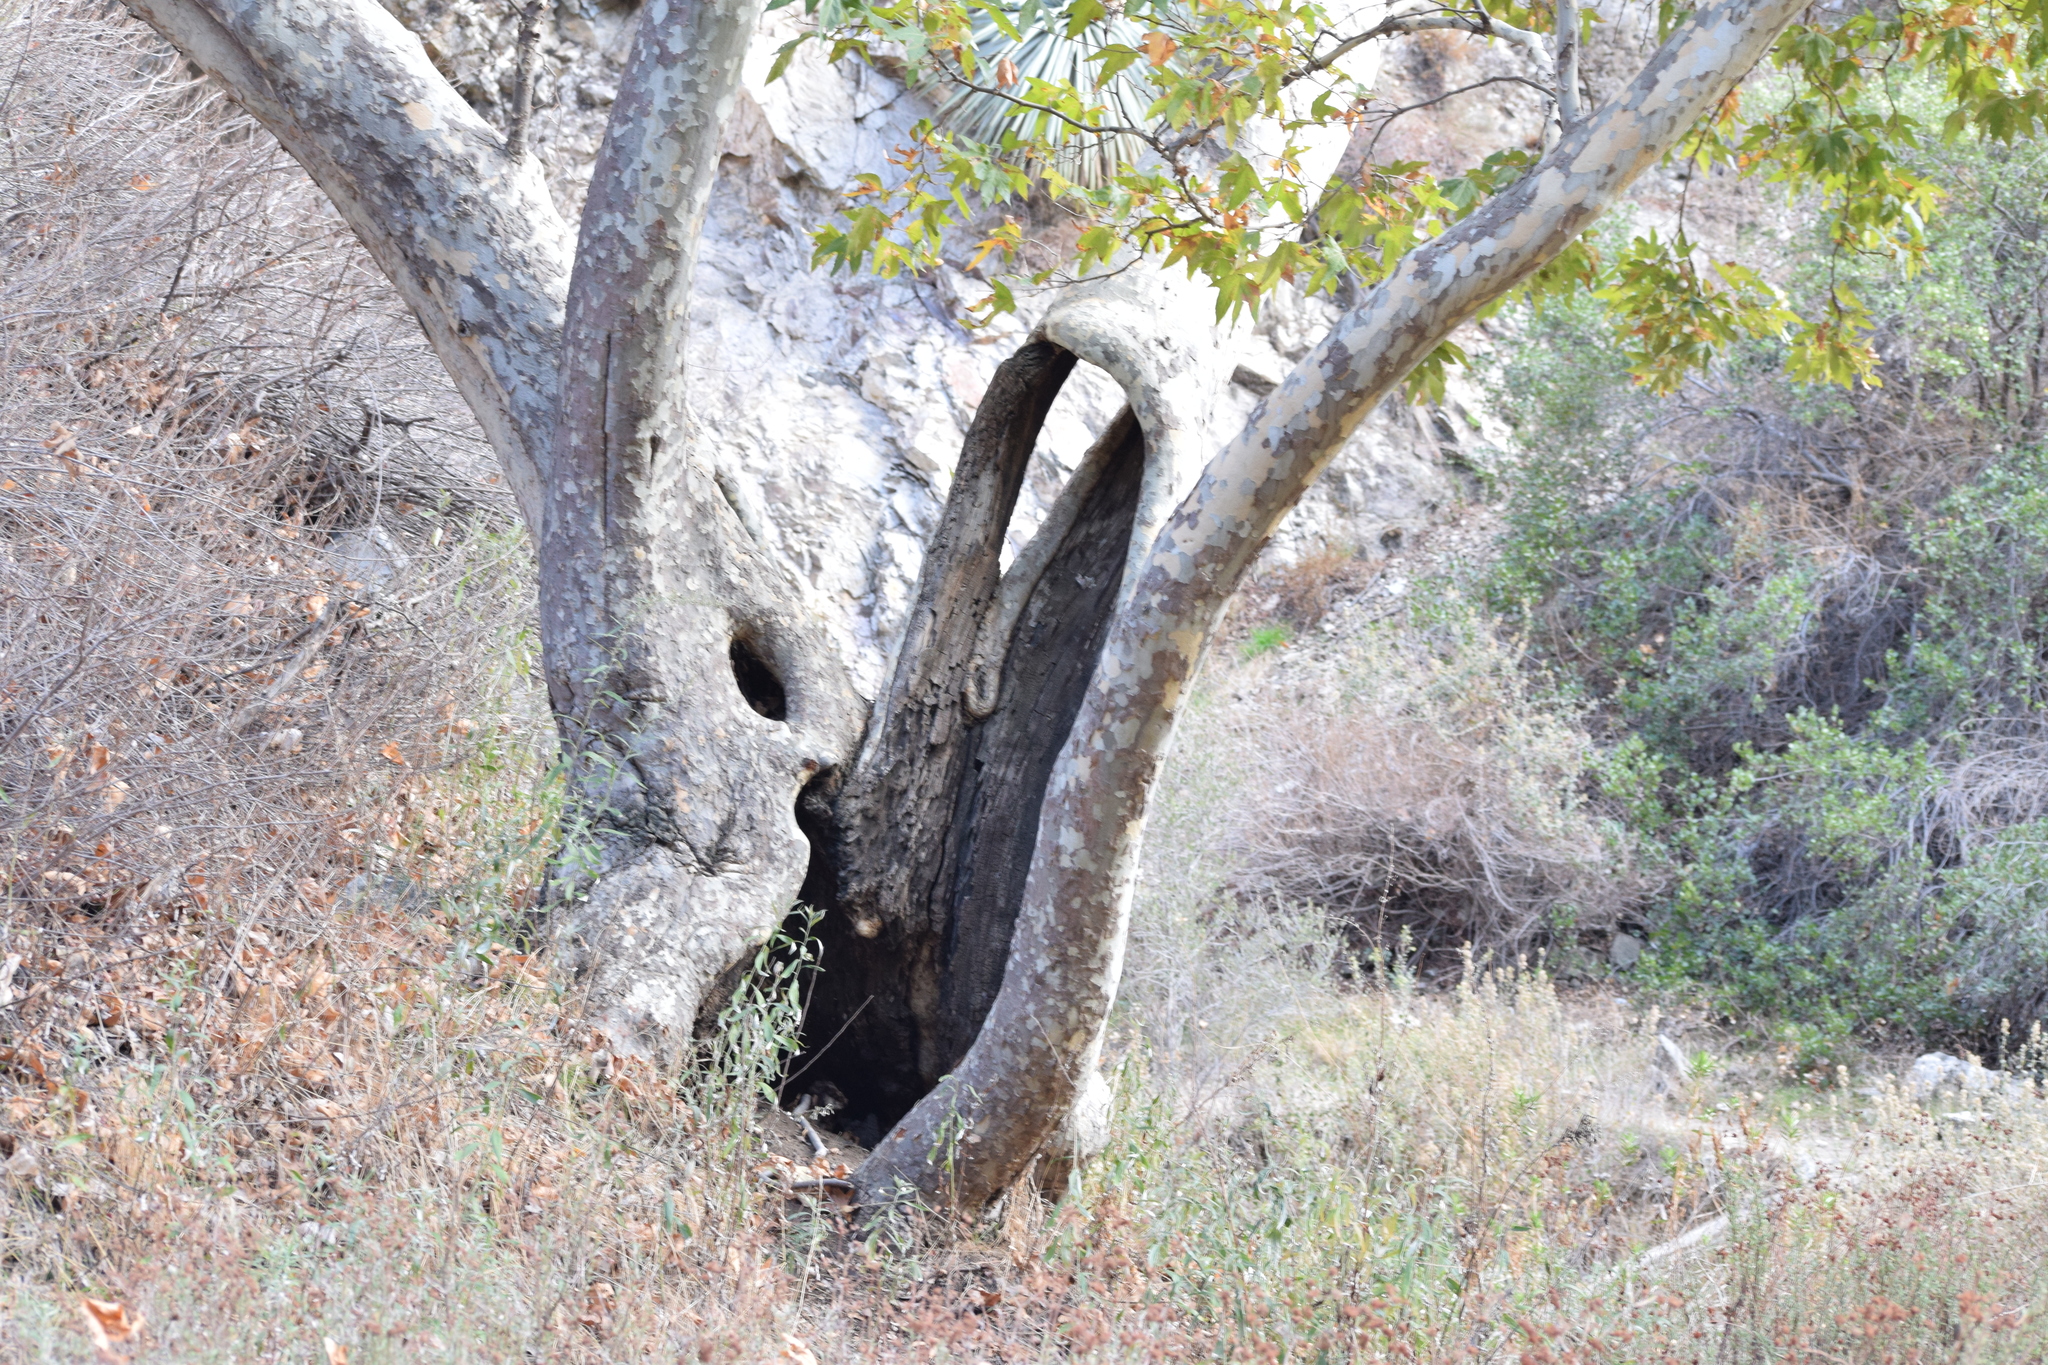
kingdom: Plantae
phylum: Tracheophyta
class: Magnoliopsida
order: Proteales
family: Platanaceae
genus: Platanus
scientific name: Platanus racemosa
